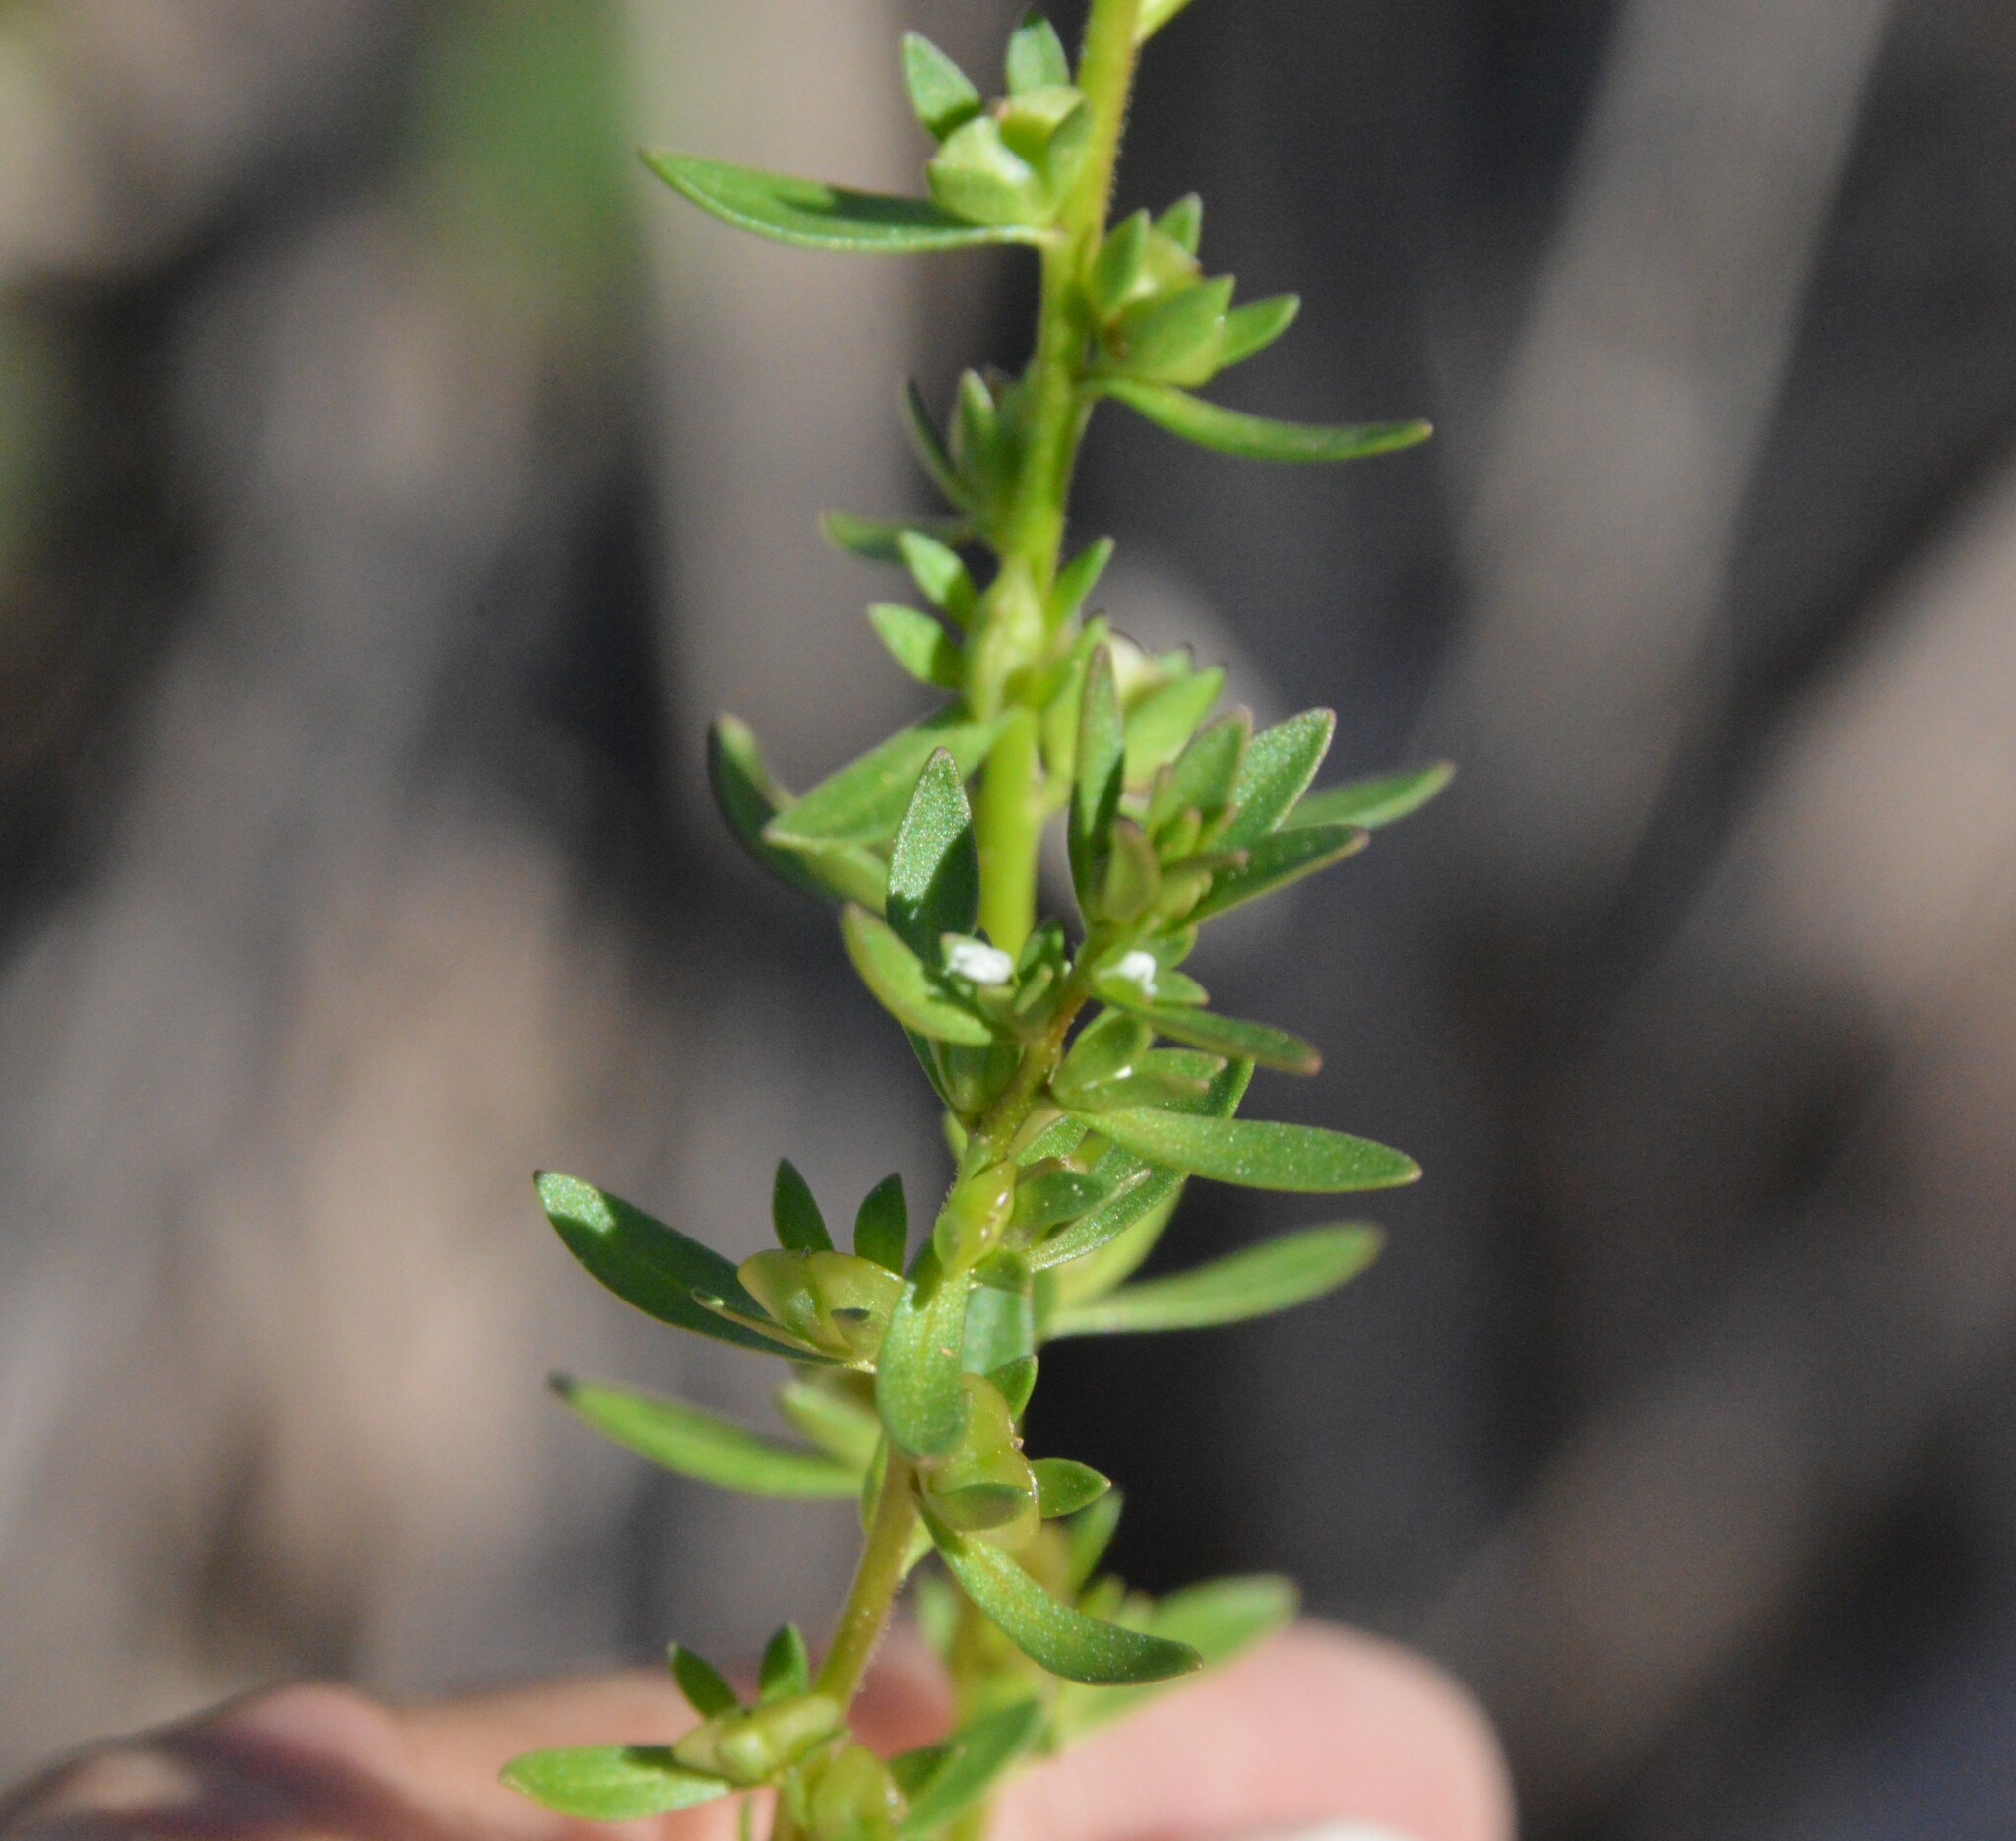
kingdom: Plantae
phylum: Tracheophyta
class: Magnoliopsida
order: Lamiales
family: Plantaginaceae
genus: Veronica
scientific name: Veronica peregrina
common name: Neckweed
